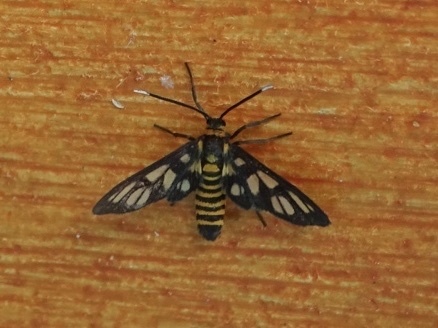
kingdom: Animalia
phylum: Arthropoda
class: Insecta
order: Lepidoptera
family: Erebidae
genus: Amata
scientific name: Amata huebneri
